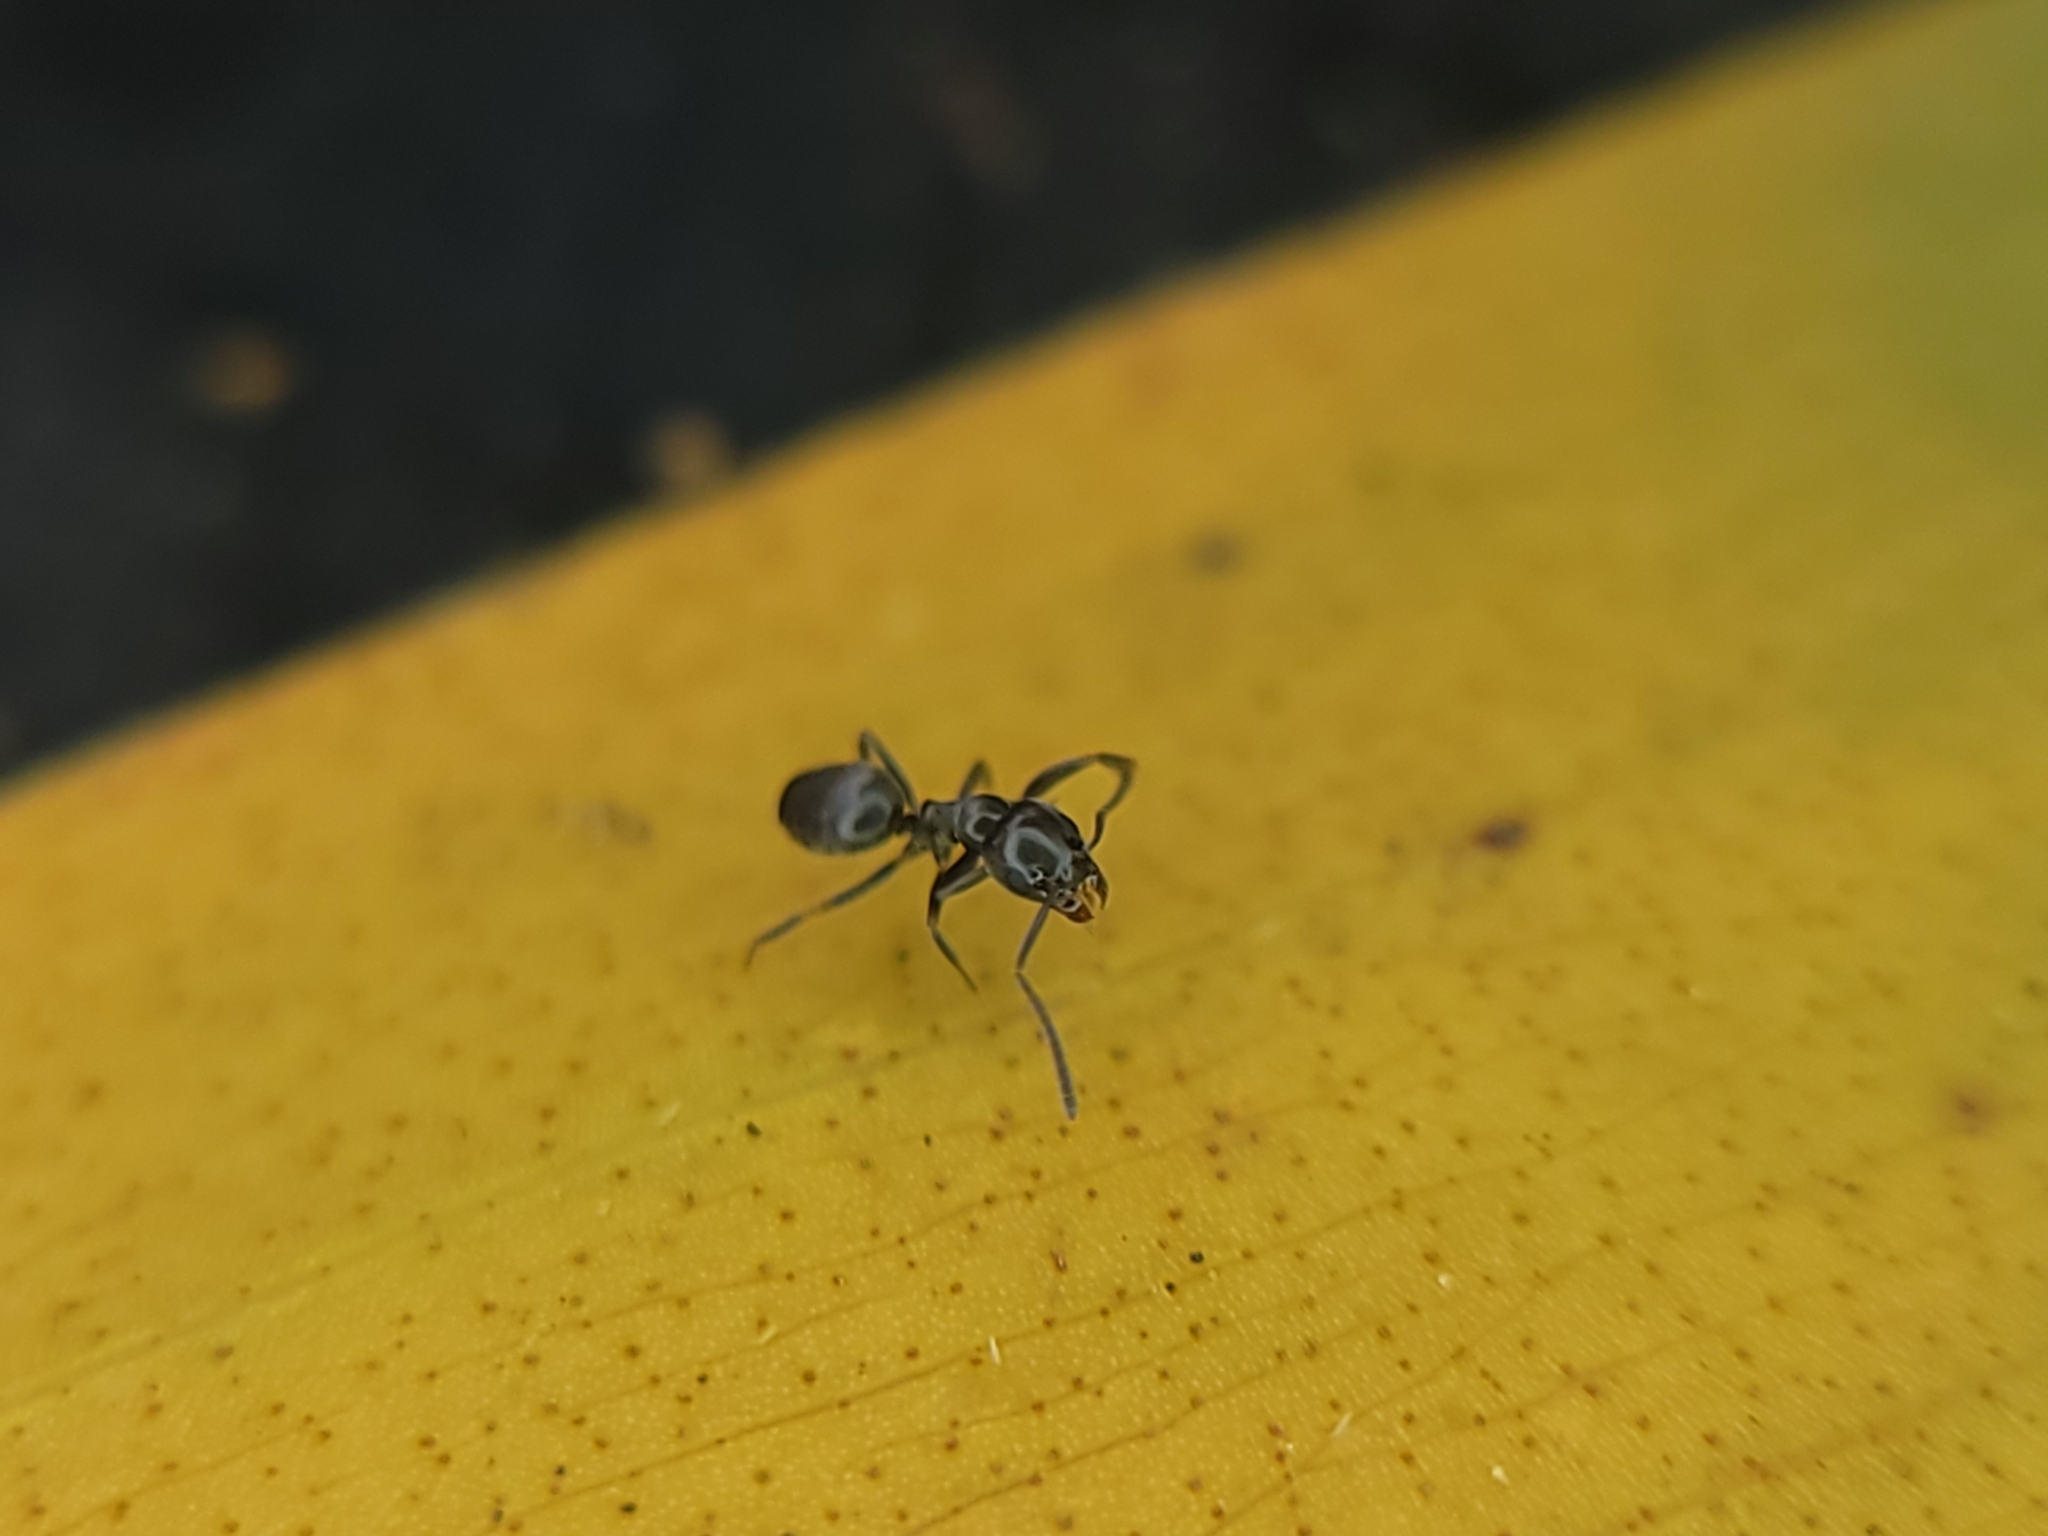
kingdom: Animalia
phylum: Arthropoda
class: Insecta
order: Hymenoptera
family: Formicidae
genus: Tapinoma
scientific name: Tapinoma sessile
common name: Odorous house ant
